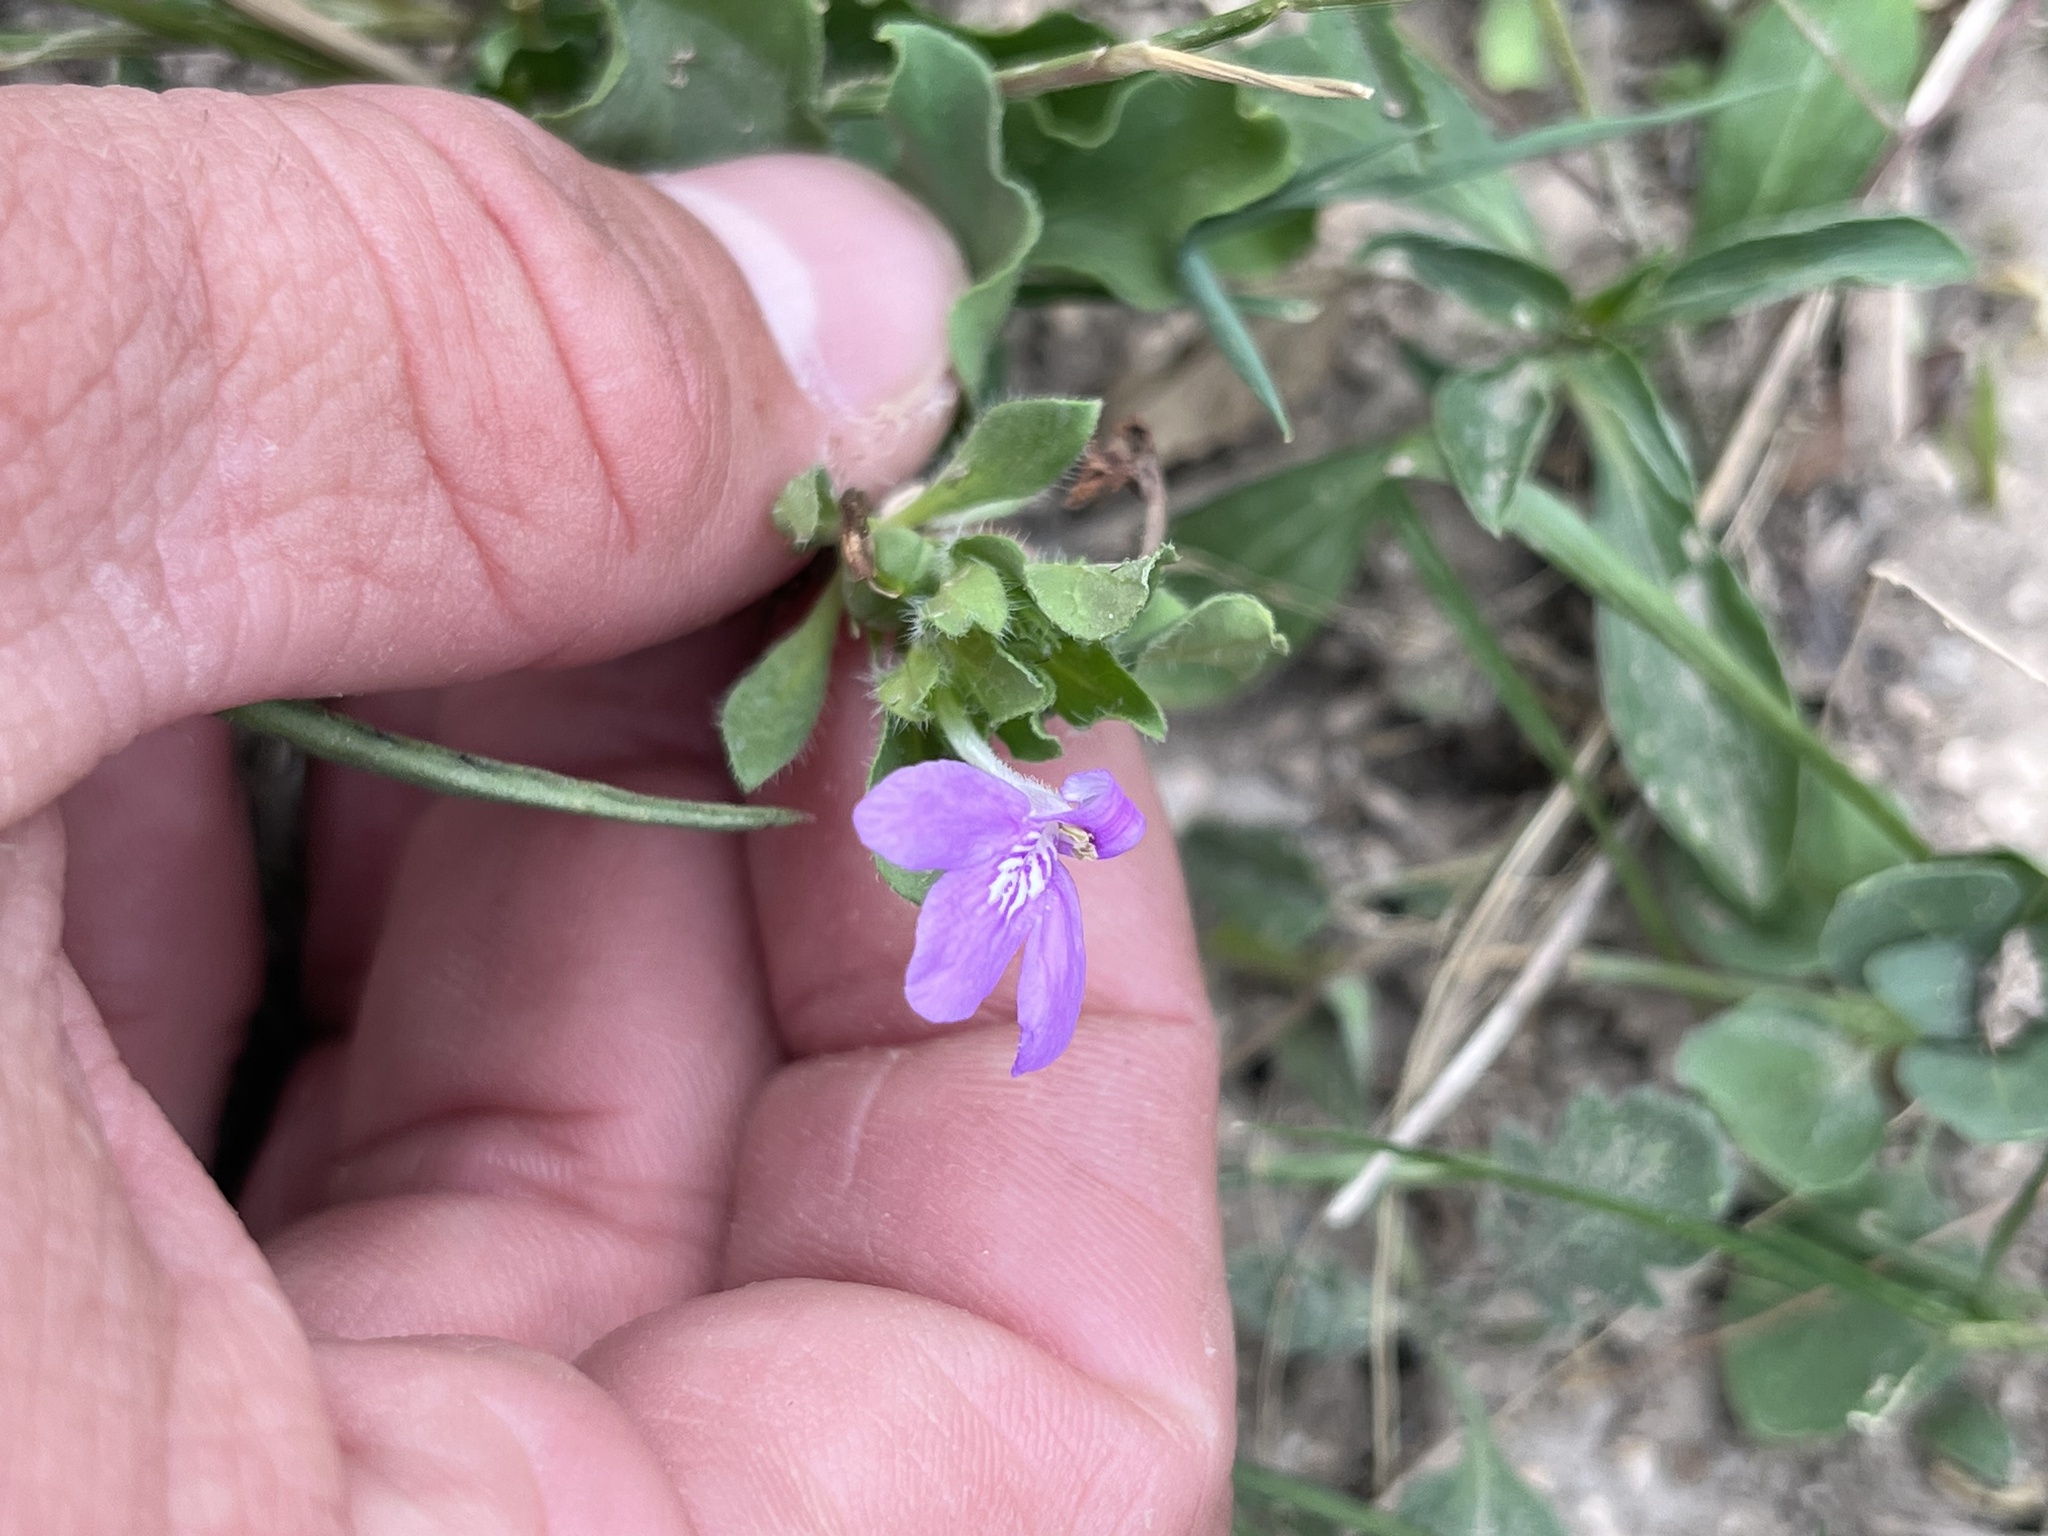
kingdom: Plantae
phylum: Tracheophyta
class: Magnoliopsida
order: Lamiales
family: Acanthaceae
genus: Justicia
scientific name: Justicia pilosella
